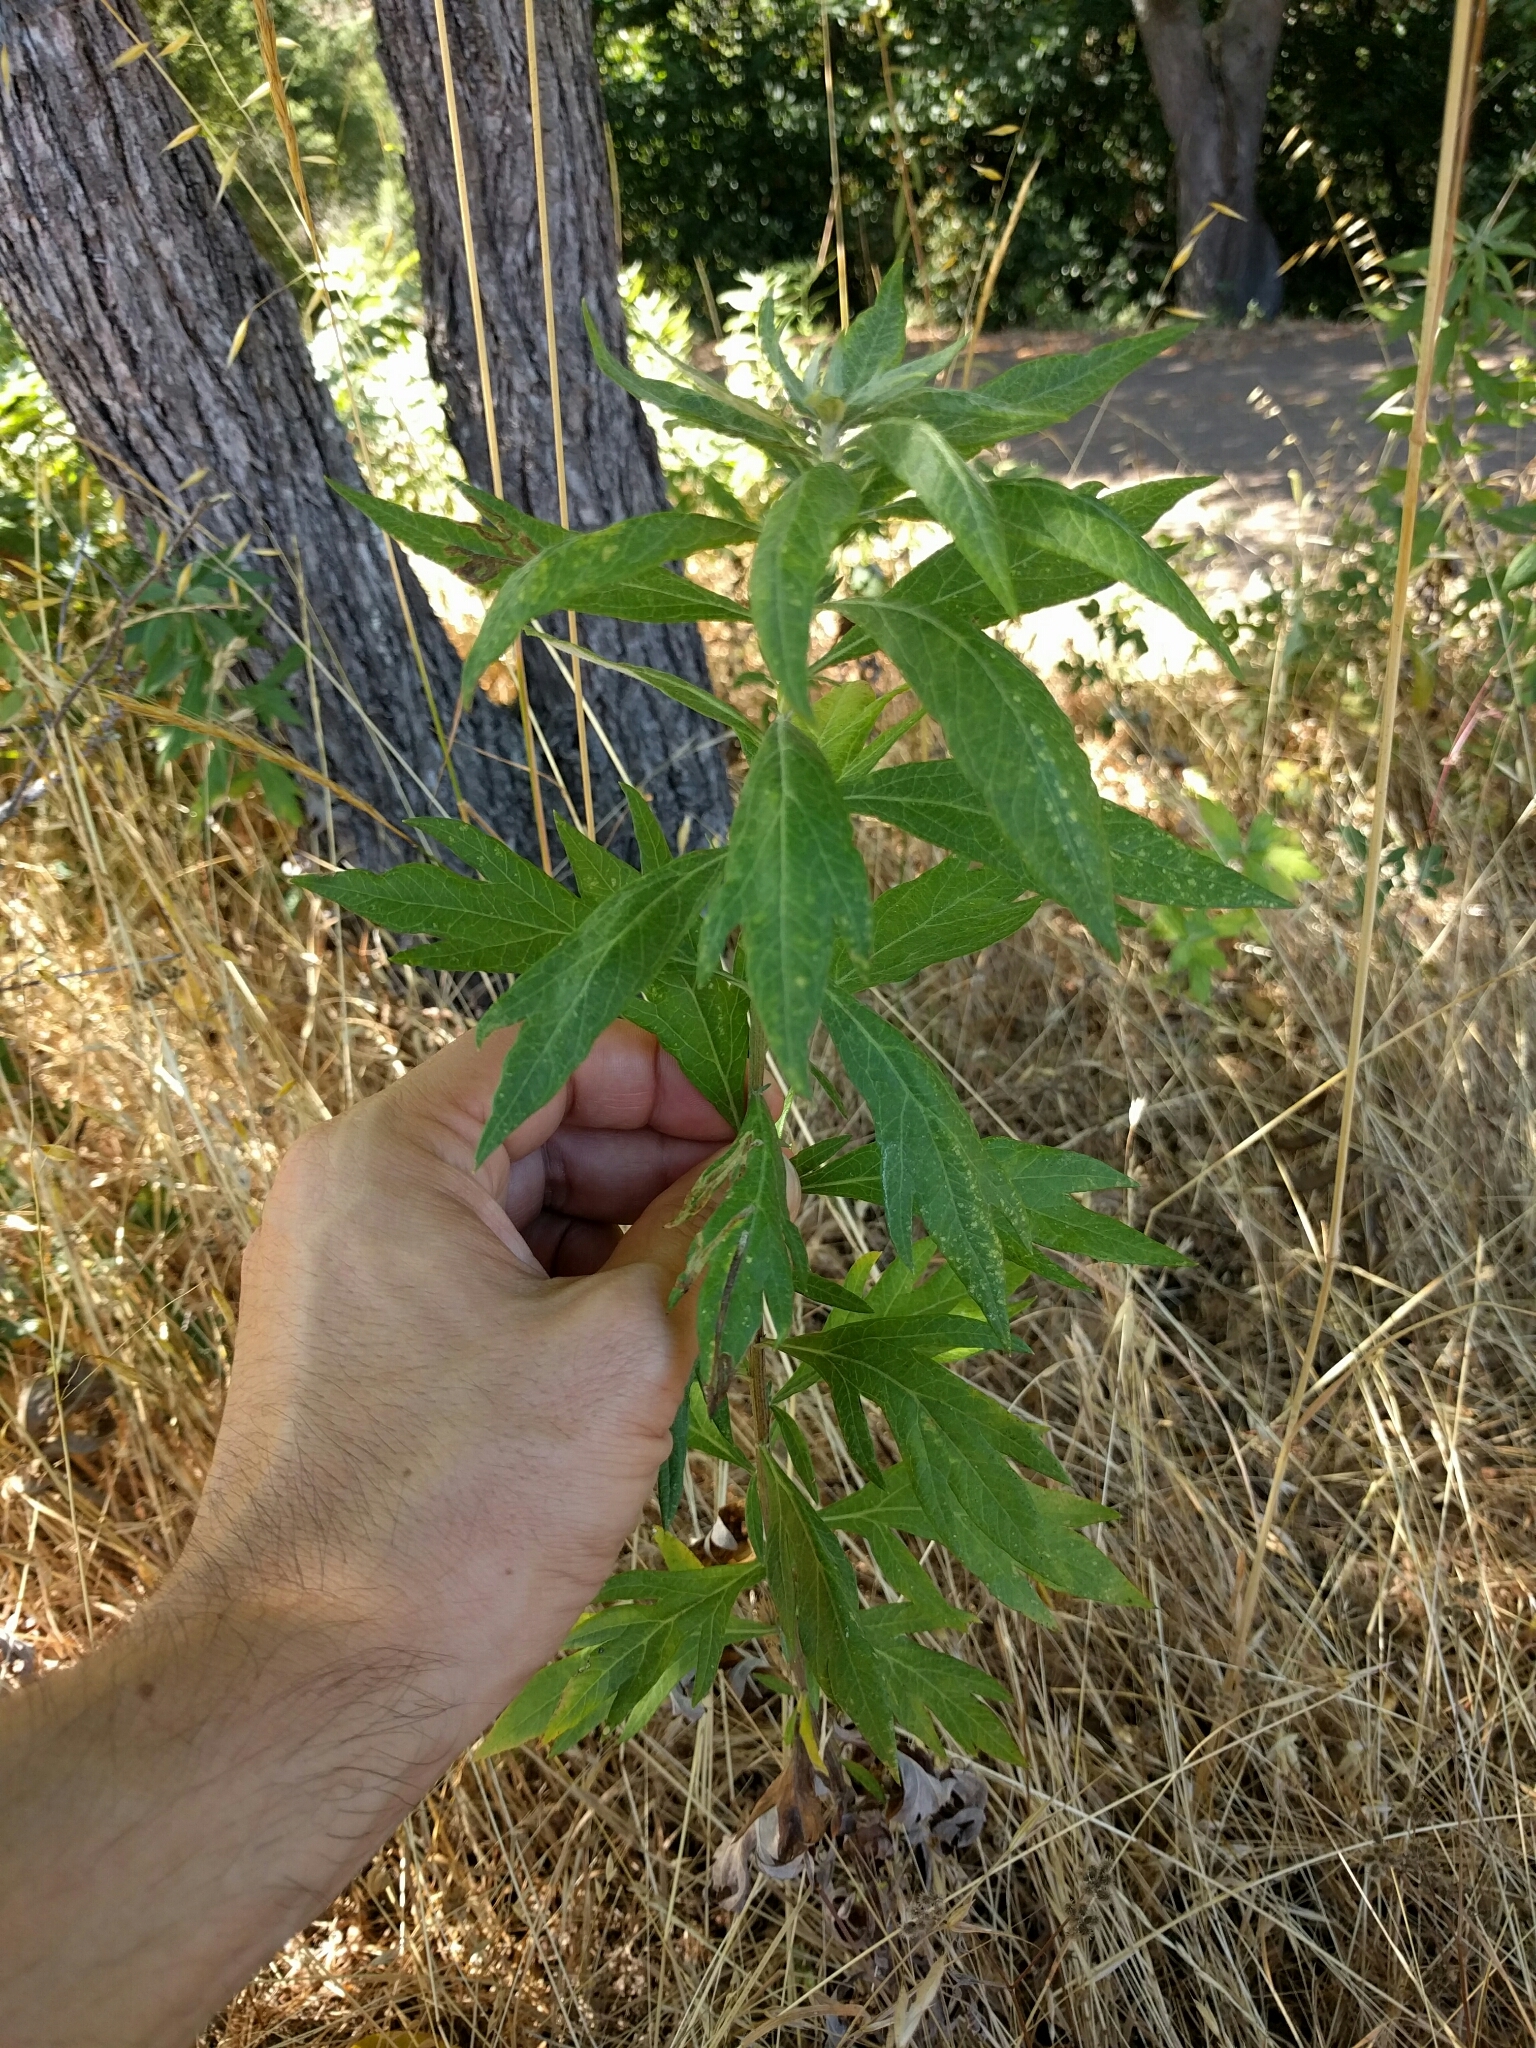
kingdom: Plantae
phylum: Tracheophyta
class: Magnoliopsida
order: Asterales
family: Asteraceae
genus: Artemisia
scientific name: Artemisia douglasiana
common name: Northwest mugwort
